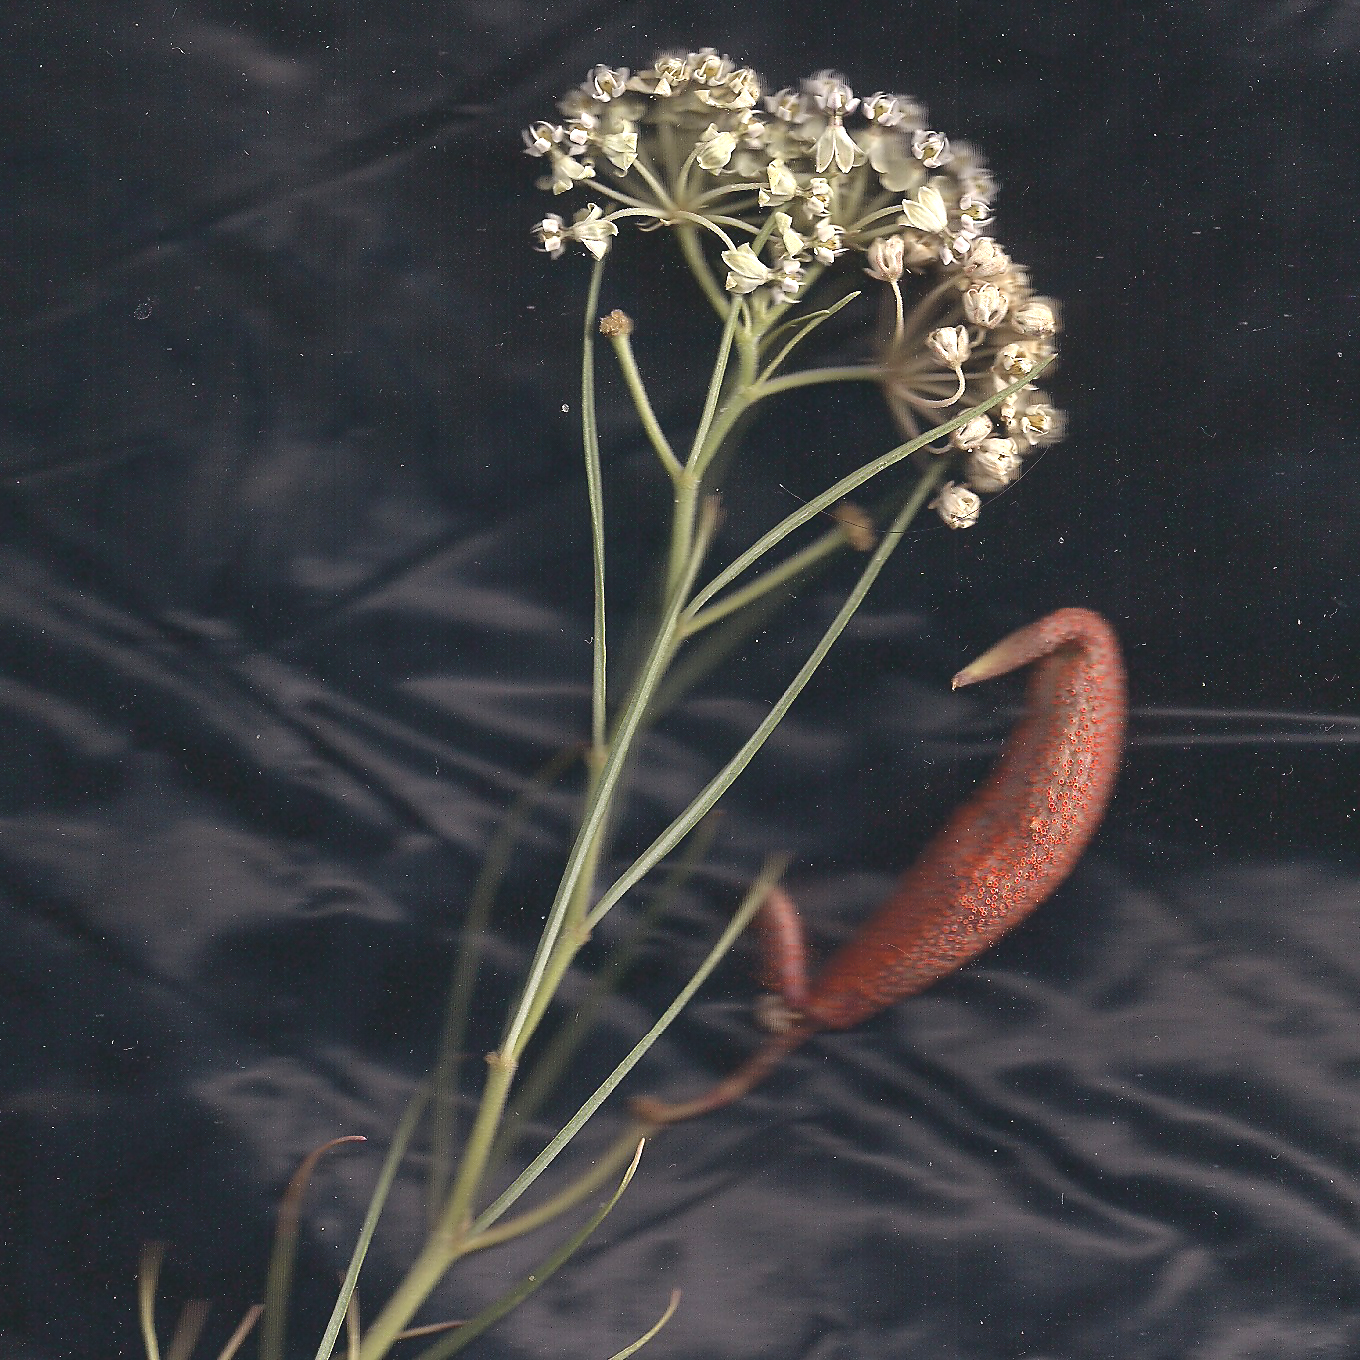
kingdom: Plantae
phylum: Tracheophyta
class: Magnoliopsida
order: Gentianales
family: Apocynaceae
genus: Asclepias
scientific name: Asclepias subverticillata
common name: Horsetail milkweed
